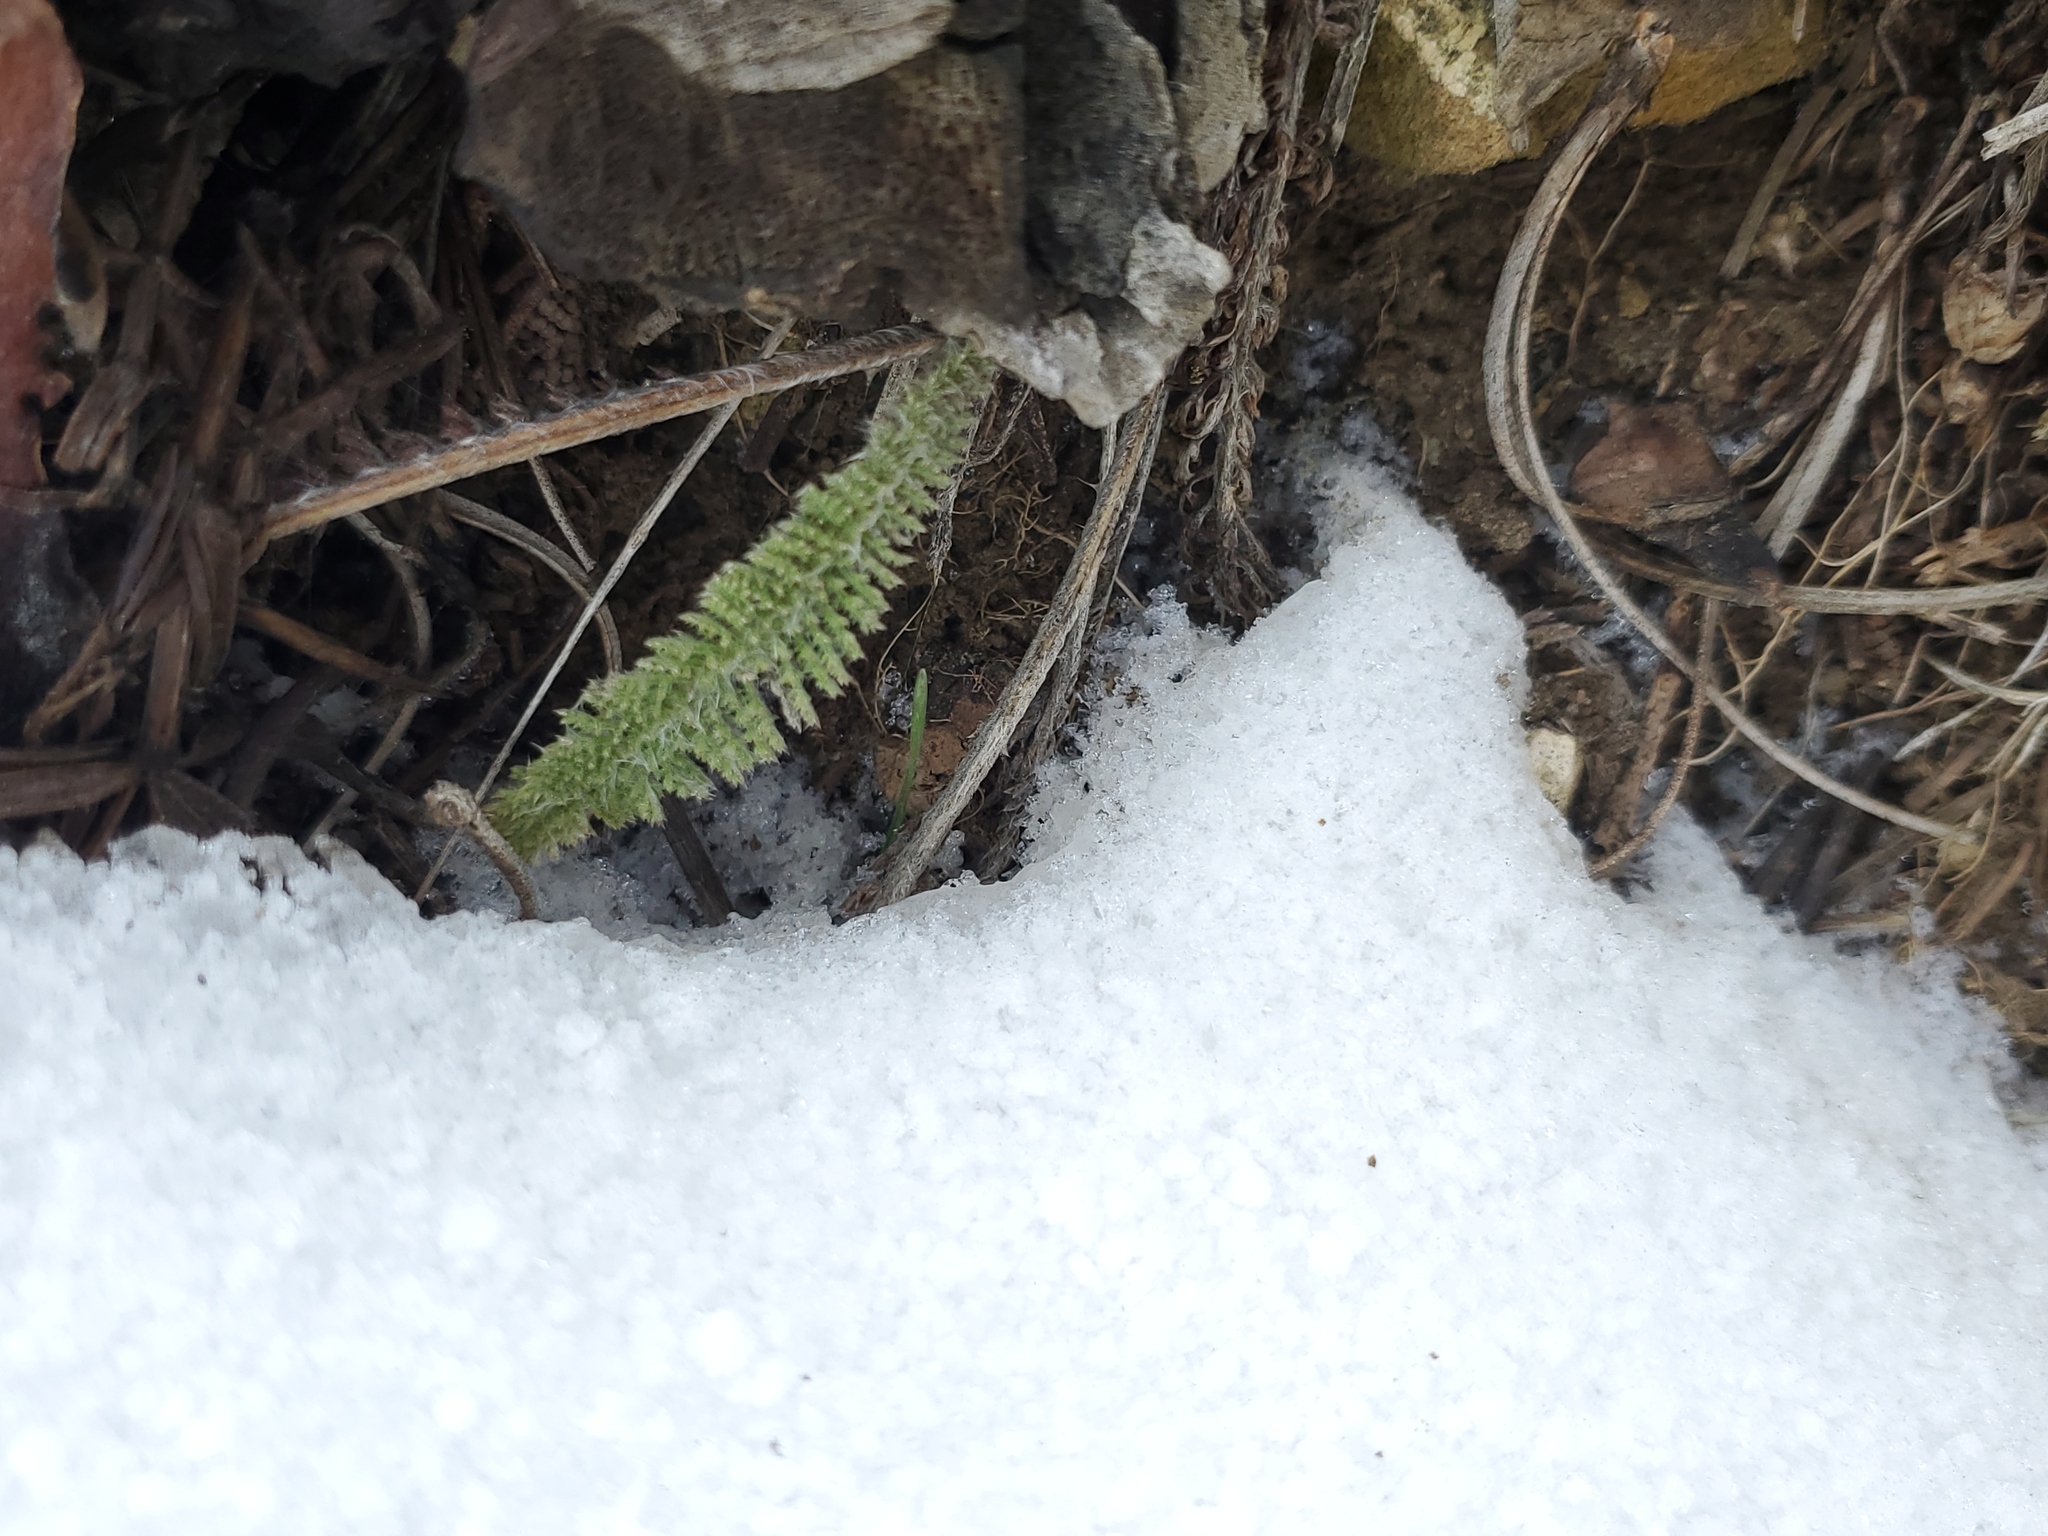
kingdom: Plantae
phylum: Tracheophyta
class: Magnoliopsida
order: Asterales
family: Asteraceae
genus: Achillea
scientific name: Achillea millefolium
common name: Yarrow
